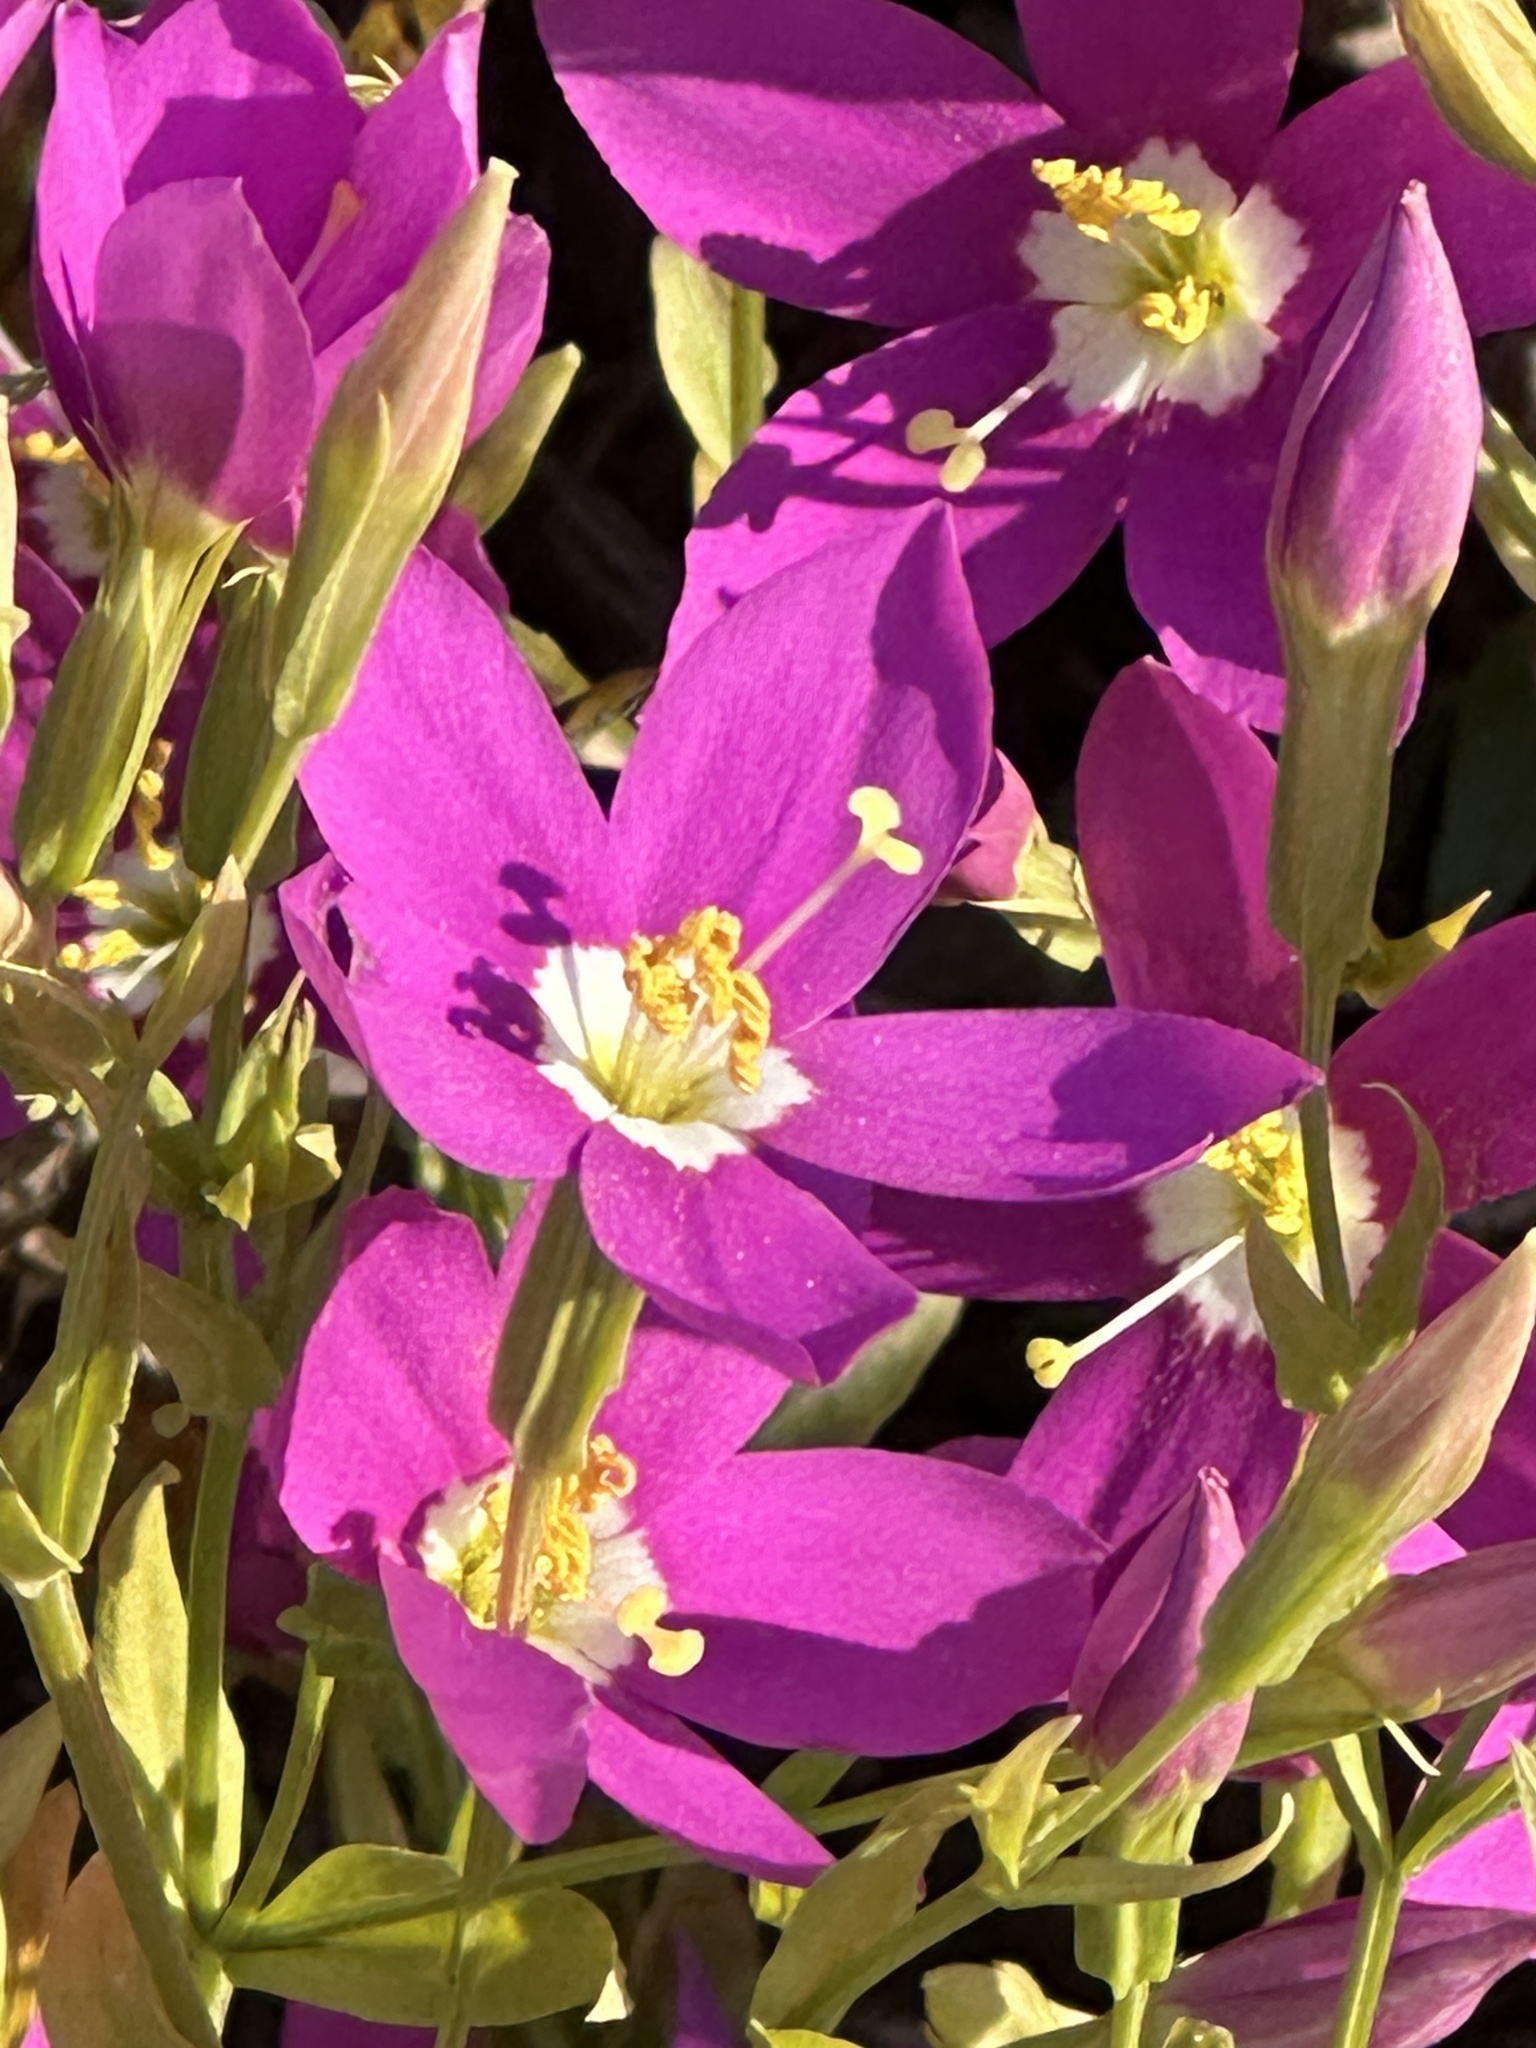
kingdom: Plantae
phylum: Tracheophyta
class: Magnoliopsida
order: Gentianales
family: Gentianaceae
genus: Zeltnera
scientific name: Zeltnera venusta
